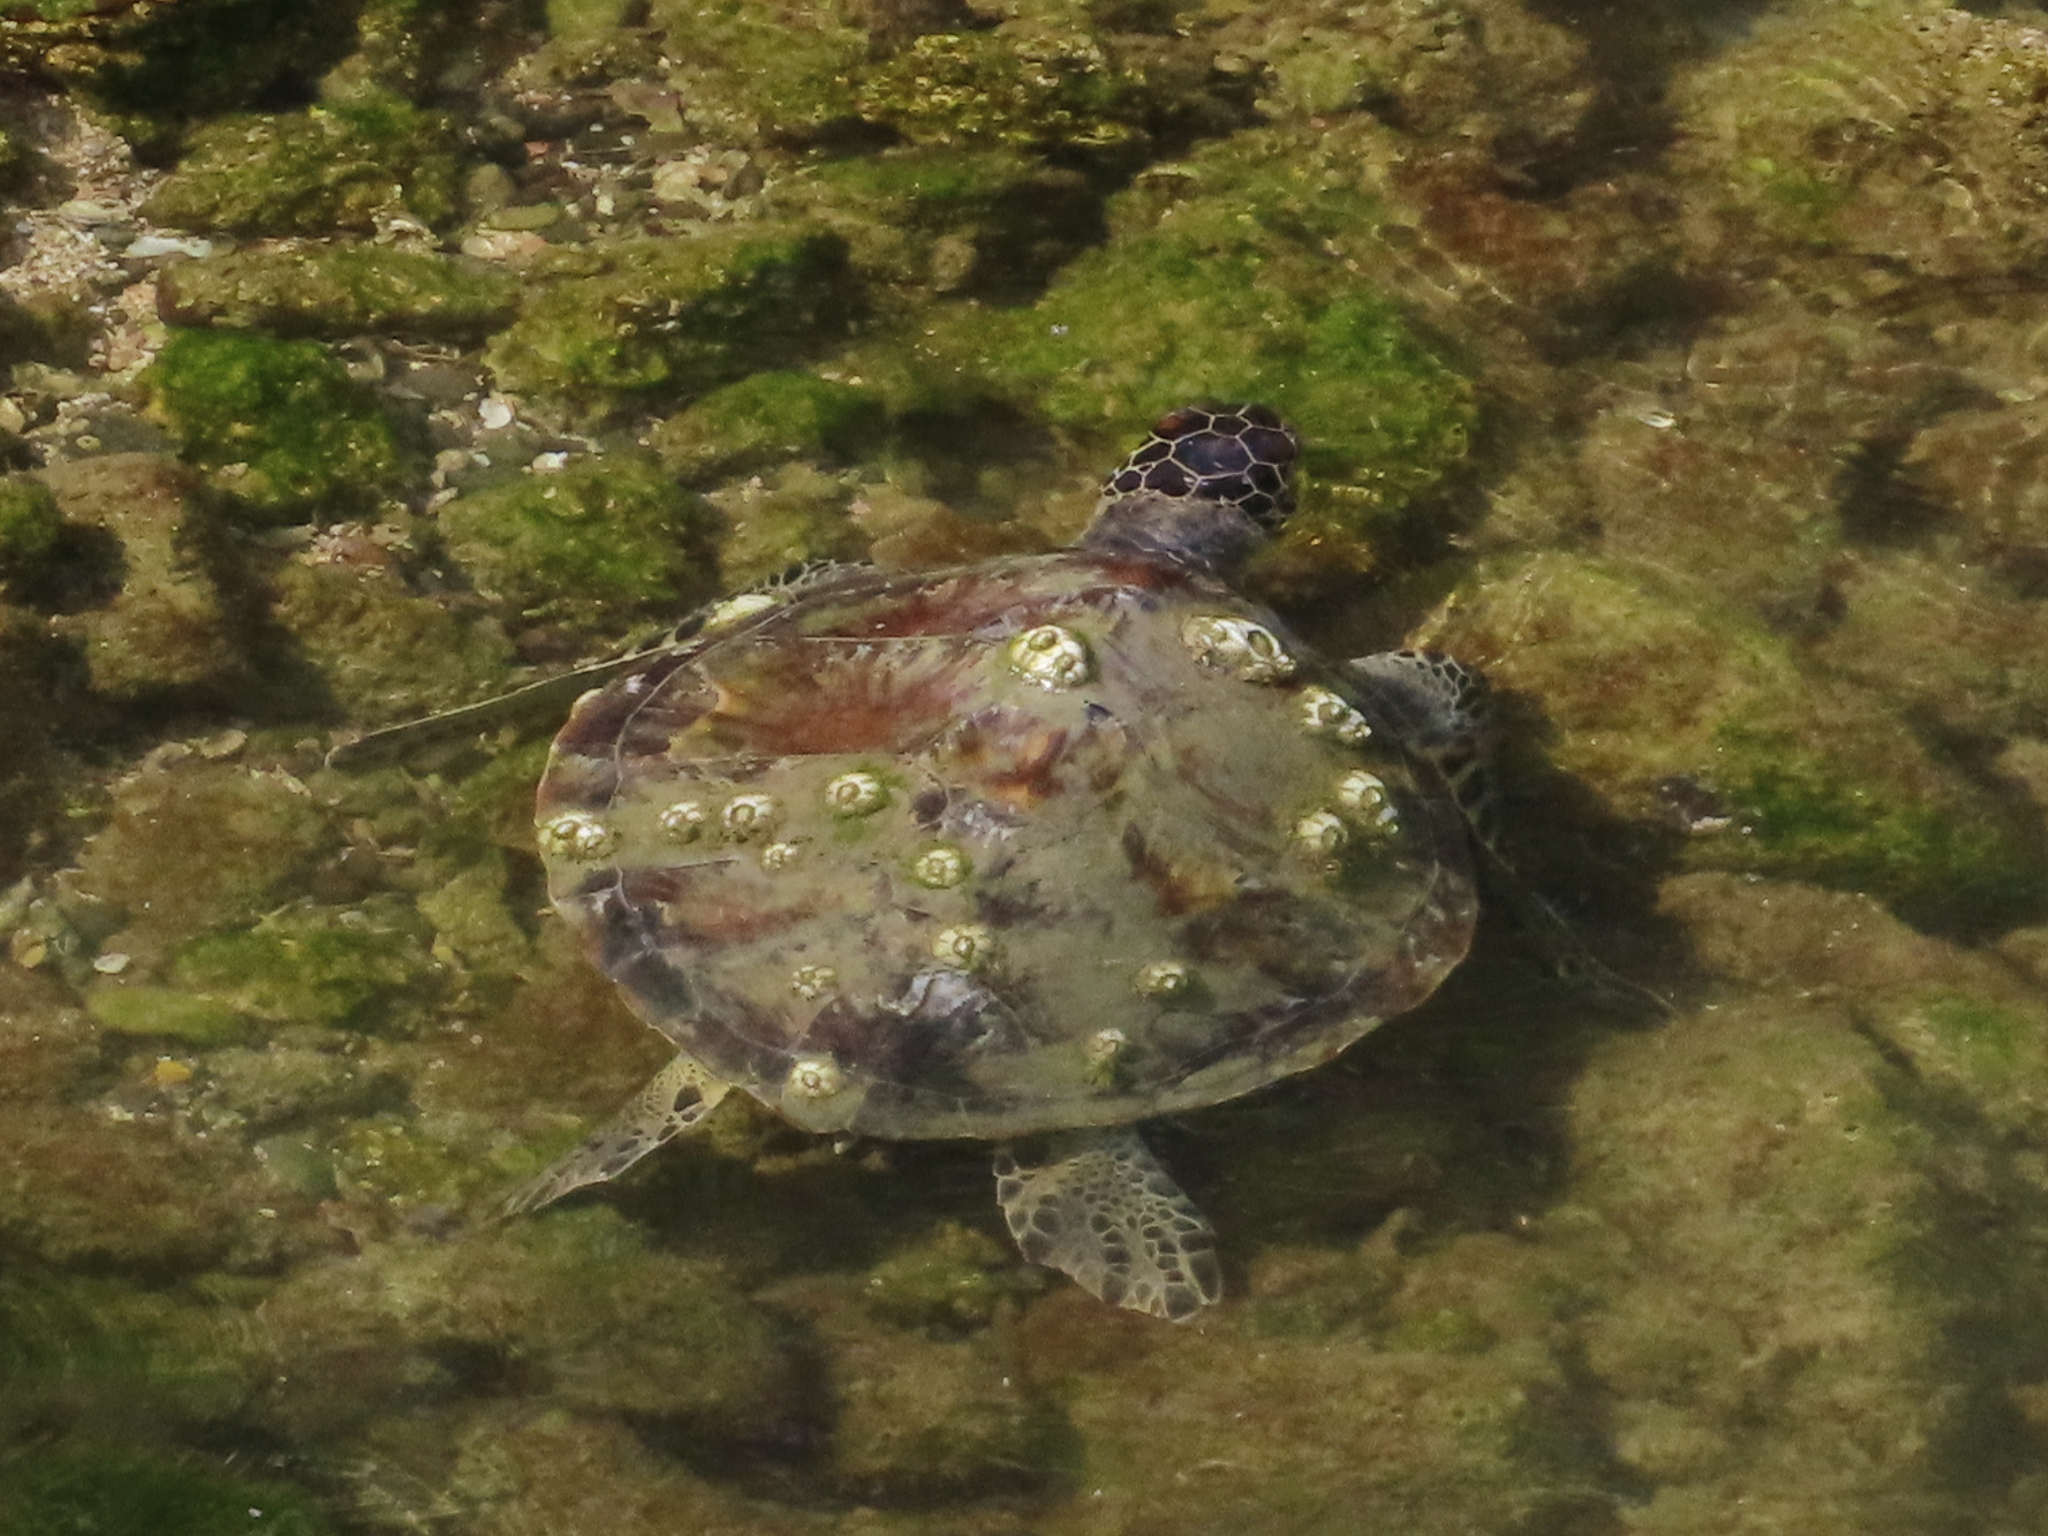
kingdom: Animalia
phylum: Chordata
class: Testudines
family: Cheloniidae
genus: Chelonia
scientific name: Chelonia mydas
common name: Green turtle
